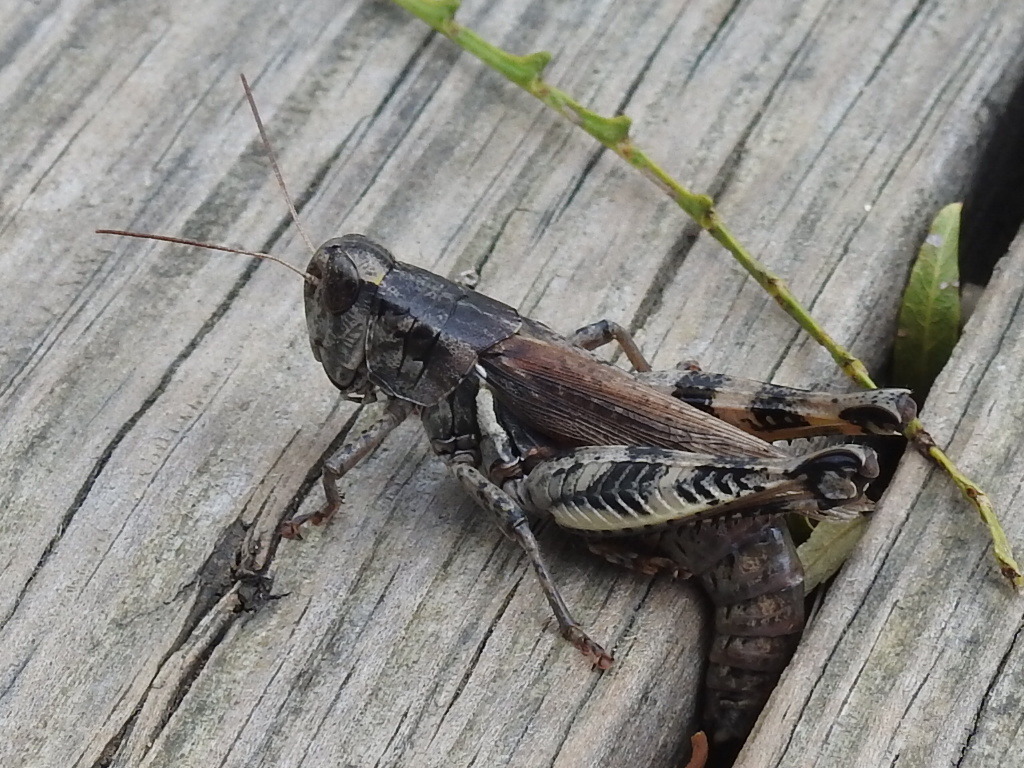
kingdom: Animalia
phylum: Arthropoda
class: Insecta
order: Orthoptera
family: Acrididae
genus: Melanoplus
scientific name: Melanoplus ponderosus
